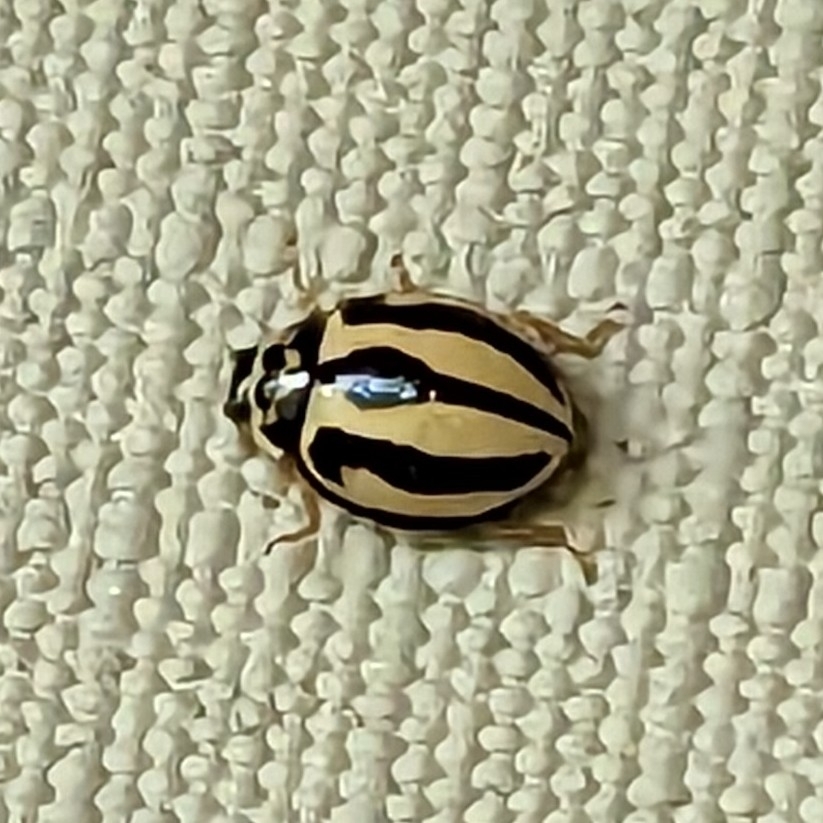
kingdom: Animalia
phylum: Arthropoda
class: Insecta
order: Coleoptera
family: Coccinellidae
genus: Micraspis
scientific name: Micraspis
